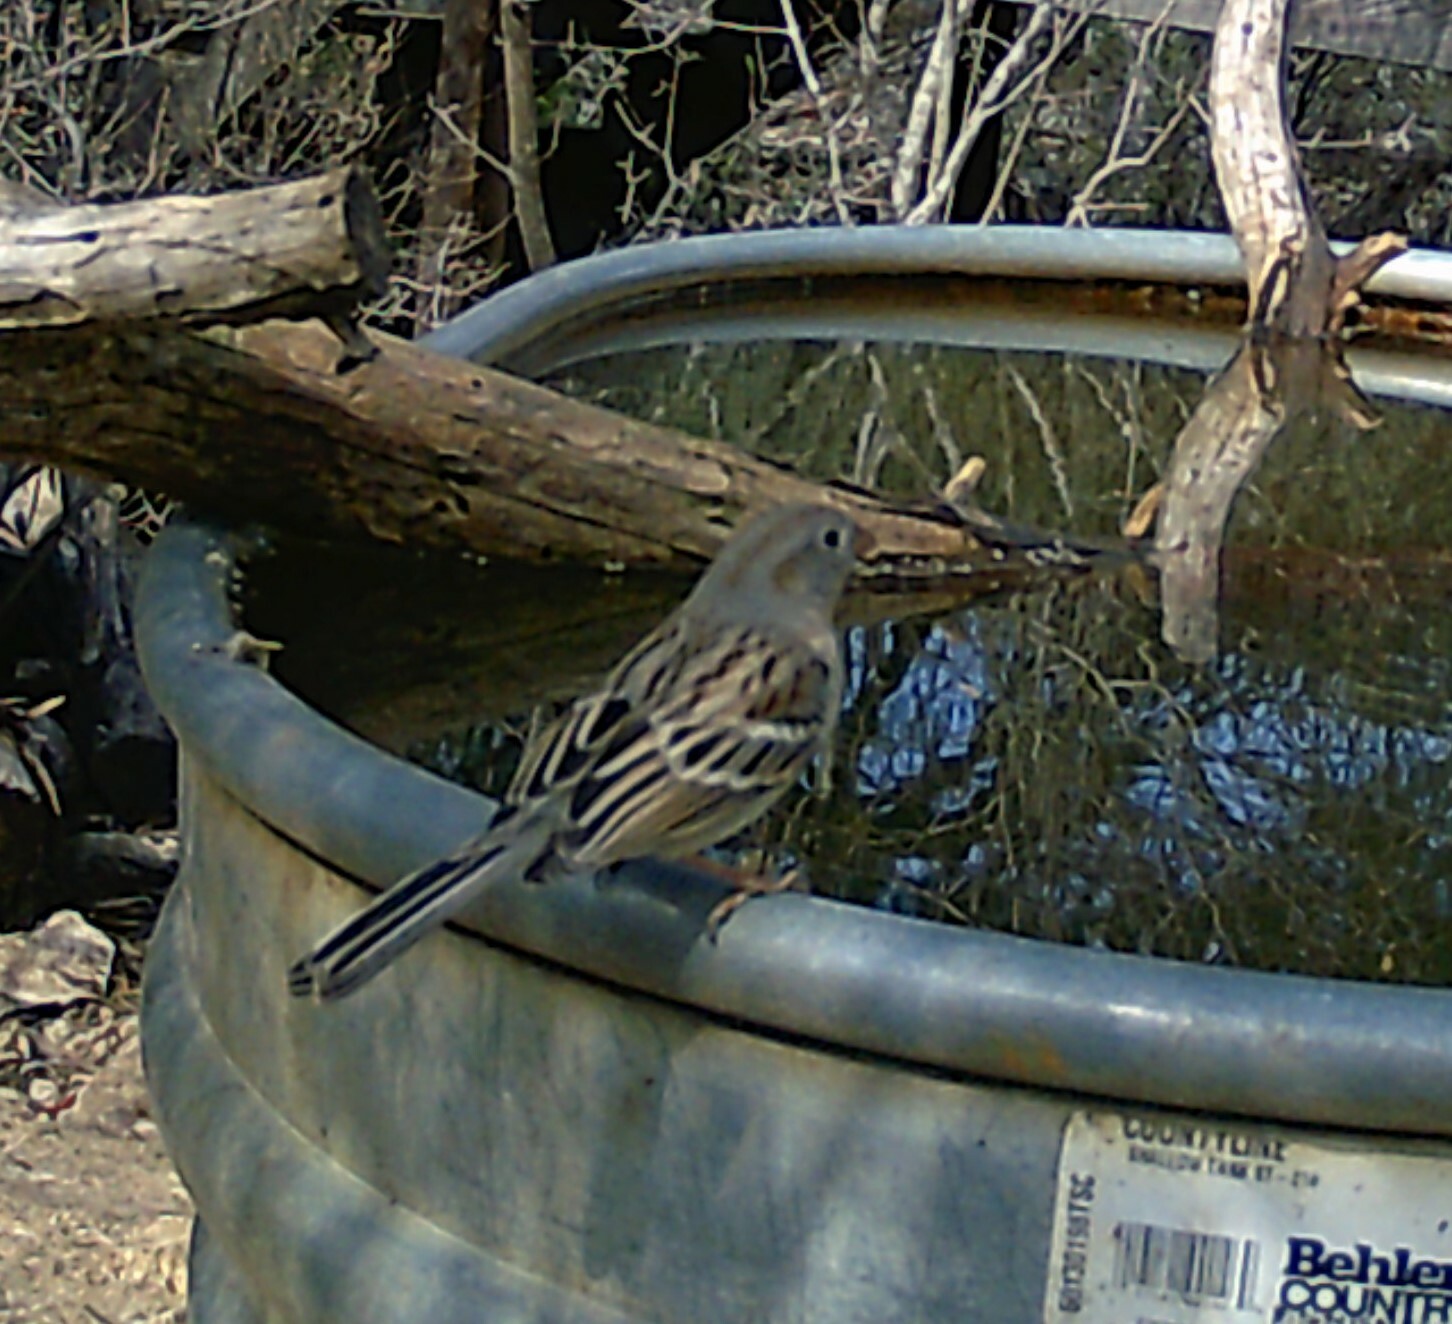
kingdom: Animalia
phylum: Chordata
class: Aves
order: Passeriformes
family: Passerellidae
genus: Spizella
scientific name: Spizella pusilla
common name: Field sparrow
